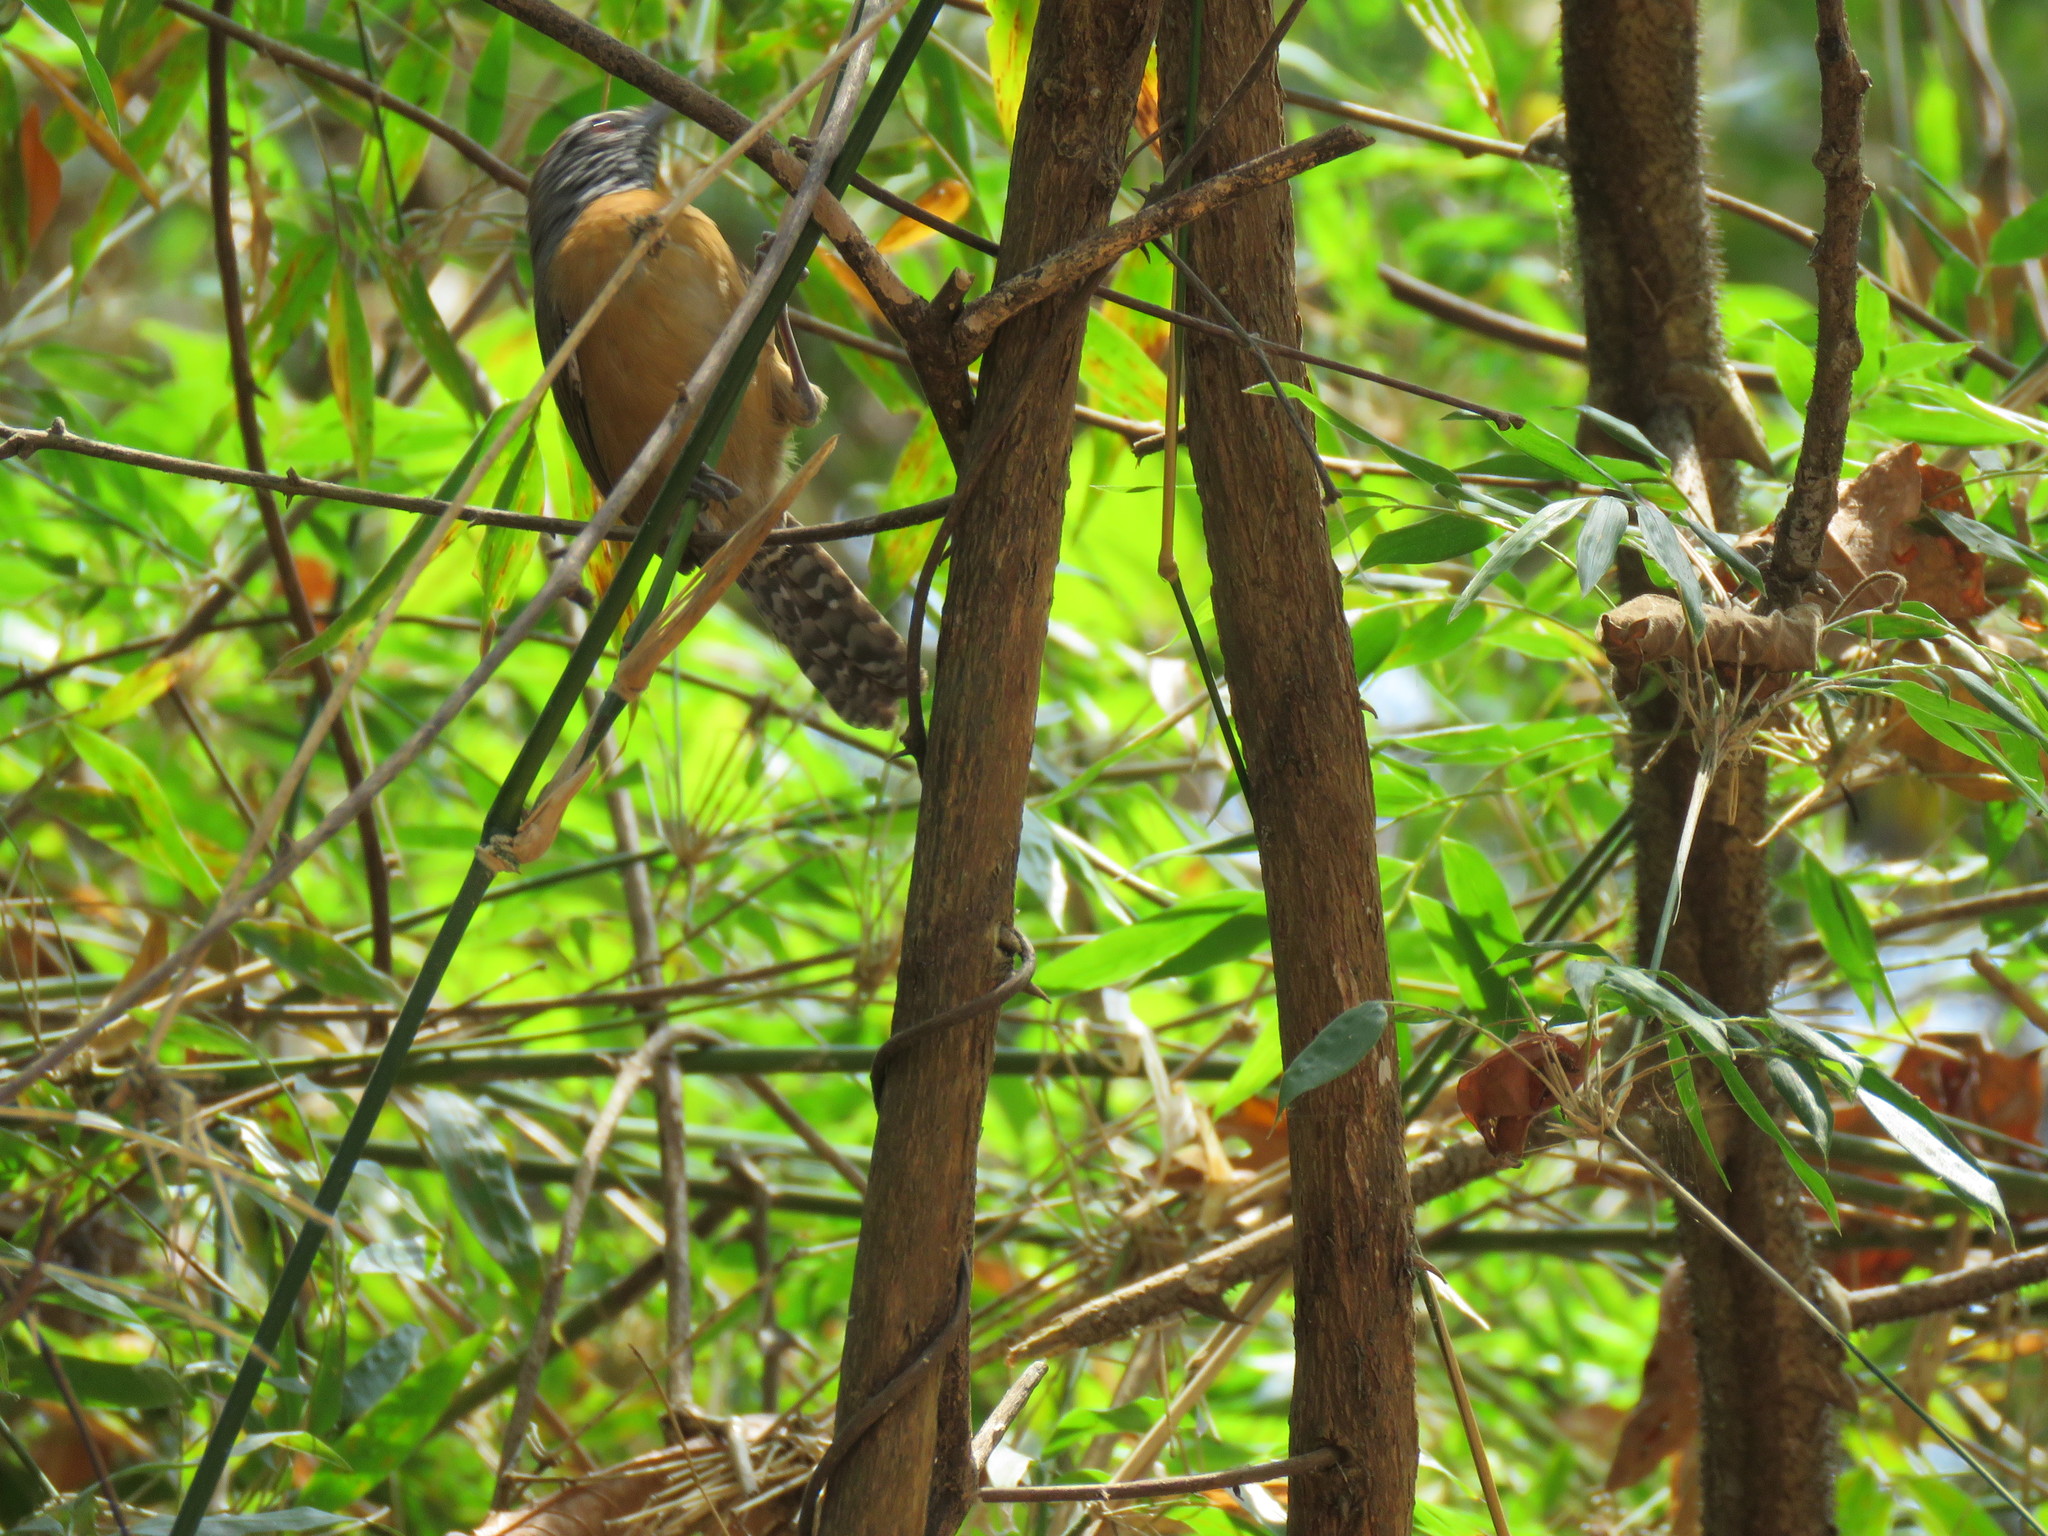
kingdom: Animalia
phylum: Chordata
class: Aves
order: Passeriformes
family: Troglodytidae
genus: Pheugopedius
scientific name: Pheugopedius rutilus
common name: Rufous-breasted wren
